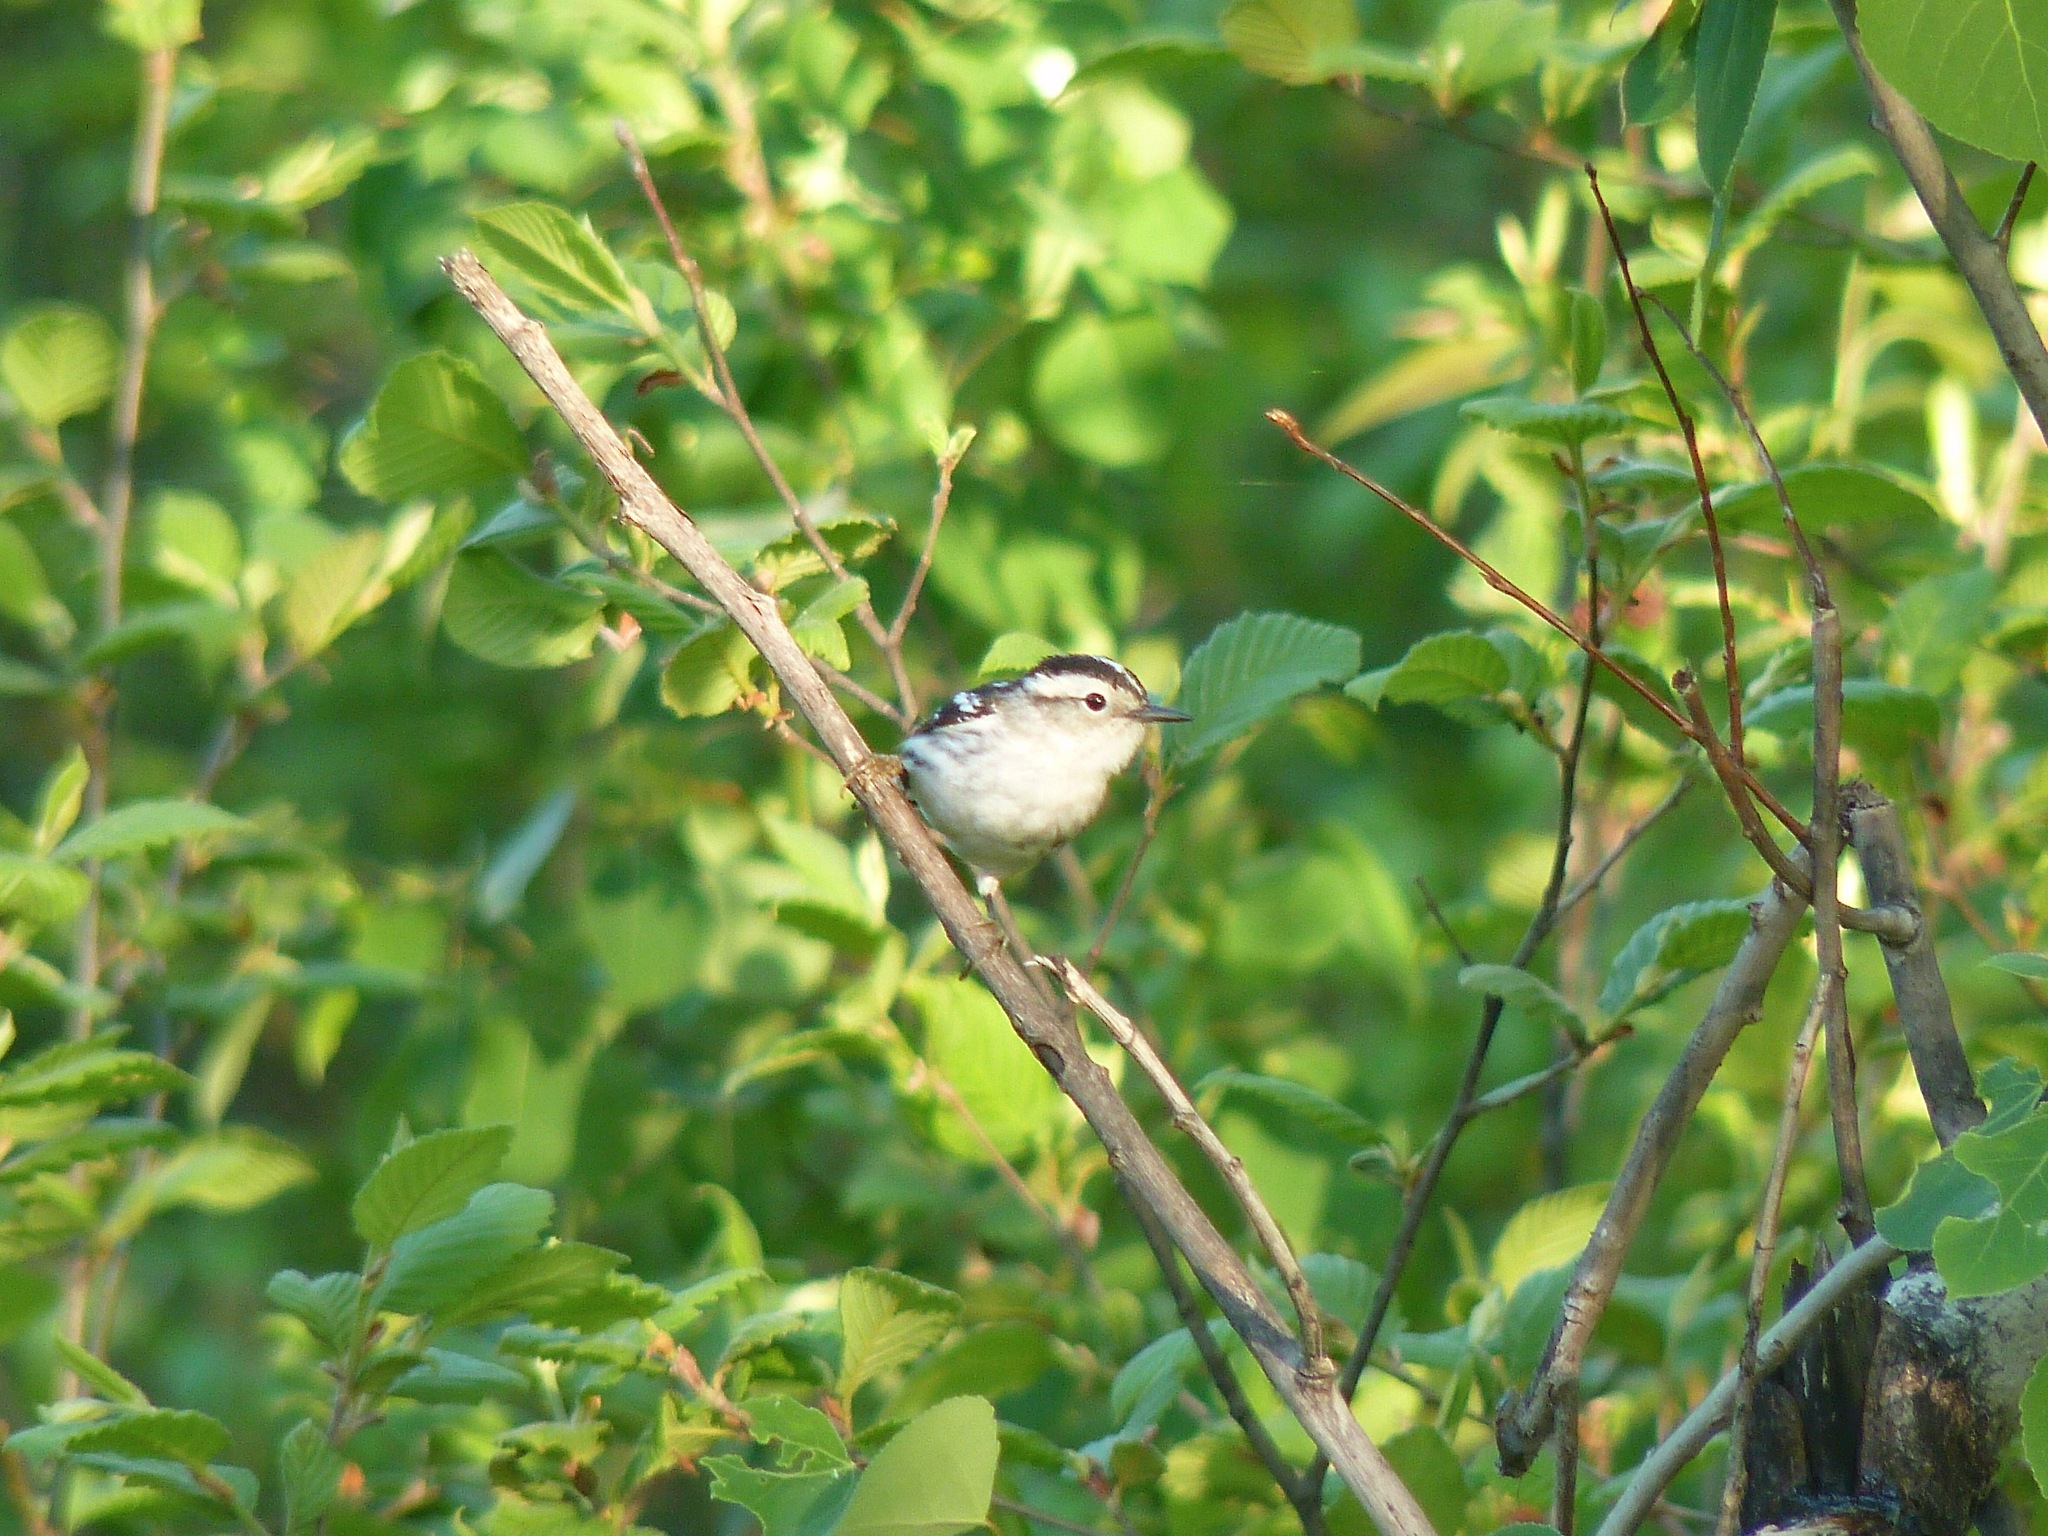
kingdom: Animalia
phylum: Chordata
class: Aves
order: Passeriformes
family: Parulidae
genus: Mniotilta
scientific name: Mniotilta varia
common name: Black-and-white warbler
